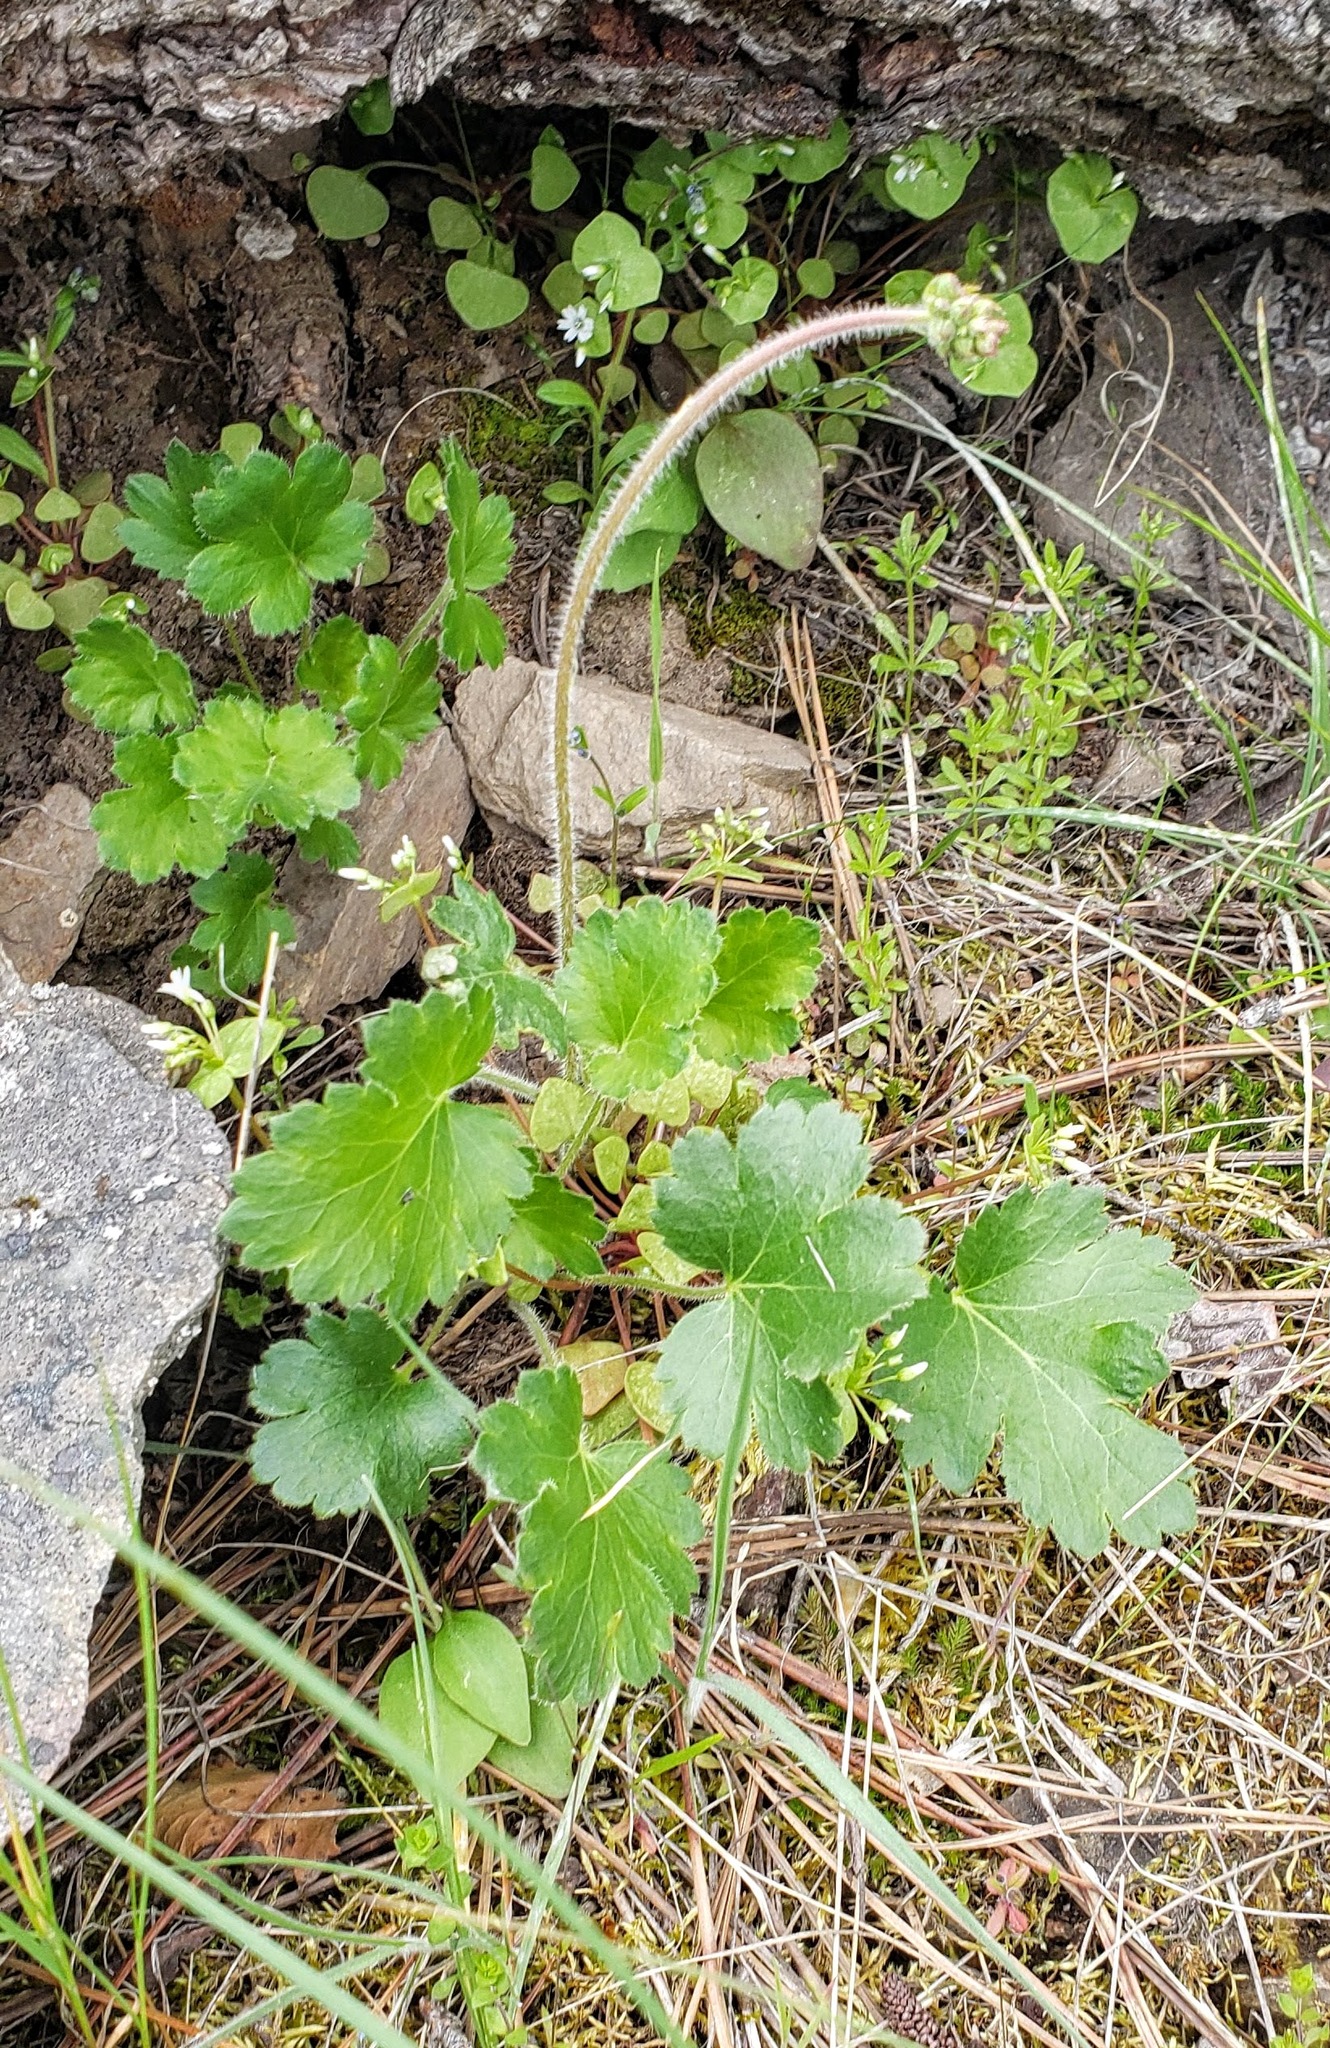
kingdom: Plantae
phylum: Tracheophyta
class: Magnoliopsida
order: Saxifragales
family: Saxifragaceae
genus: Heuchera
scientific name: Heuchera cylindrica
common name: Mat alumroot
